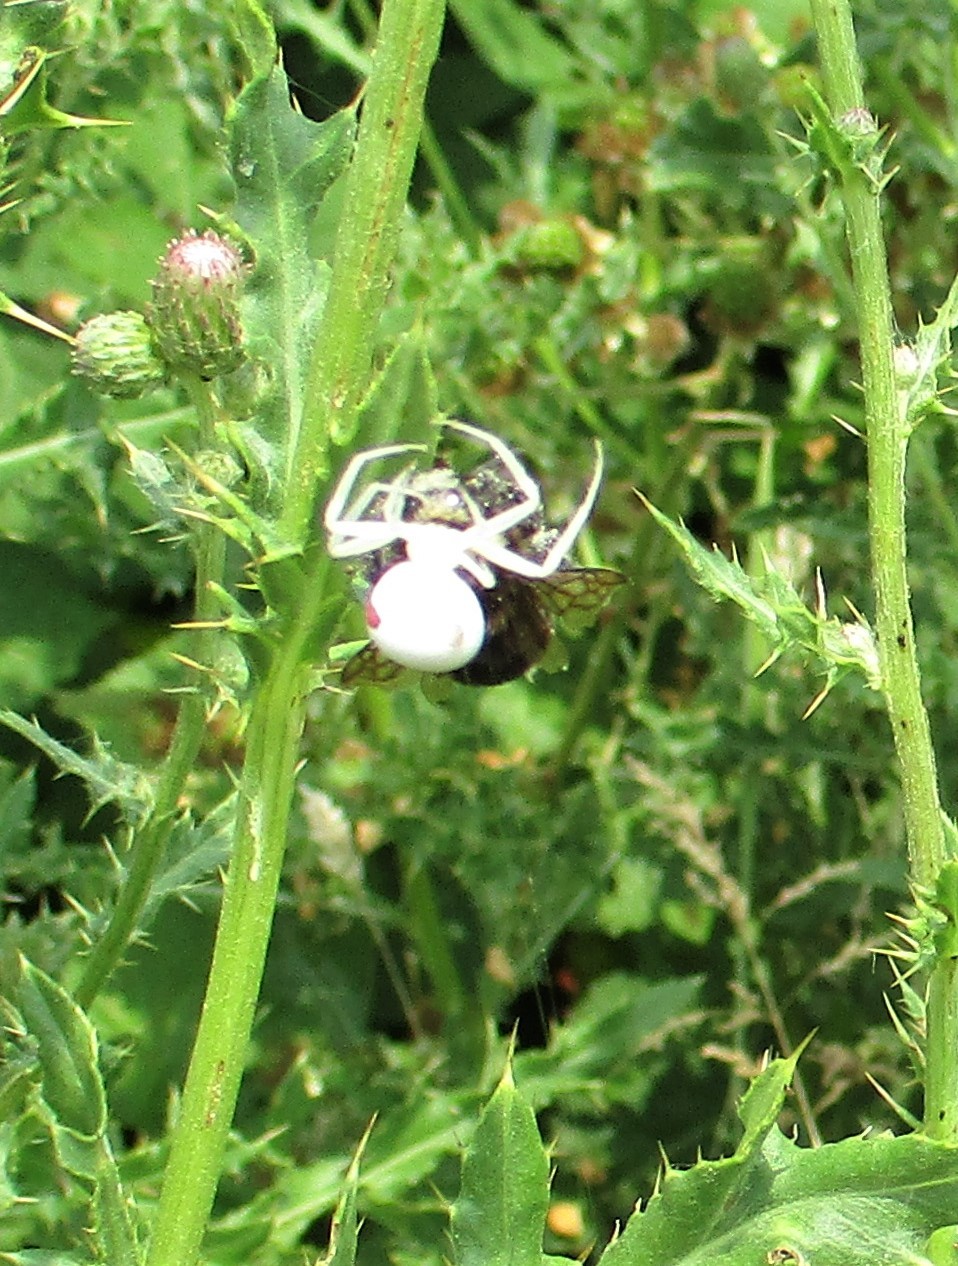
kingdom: Animalia
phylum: Arthropoda
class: Arachnida
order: Araneae
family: Thomisidae
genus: Misumena
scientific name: Misumena vatia
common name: Goldenrod crab spider
